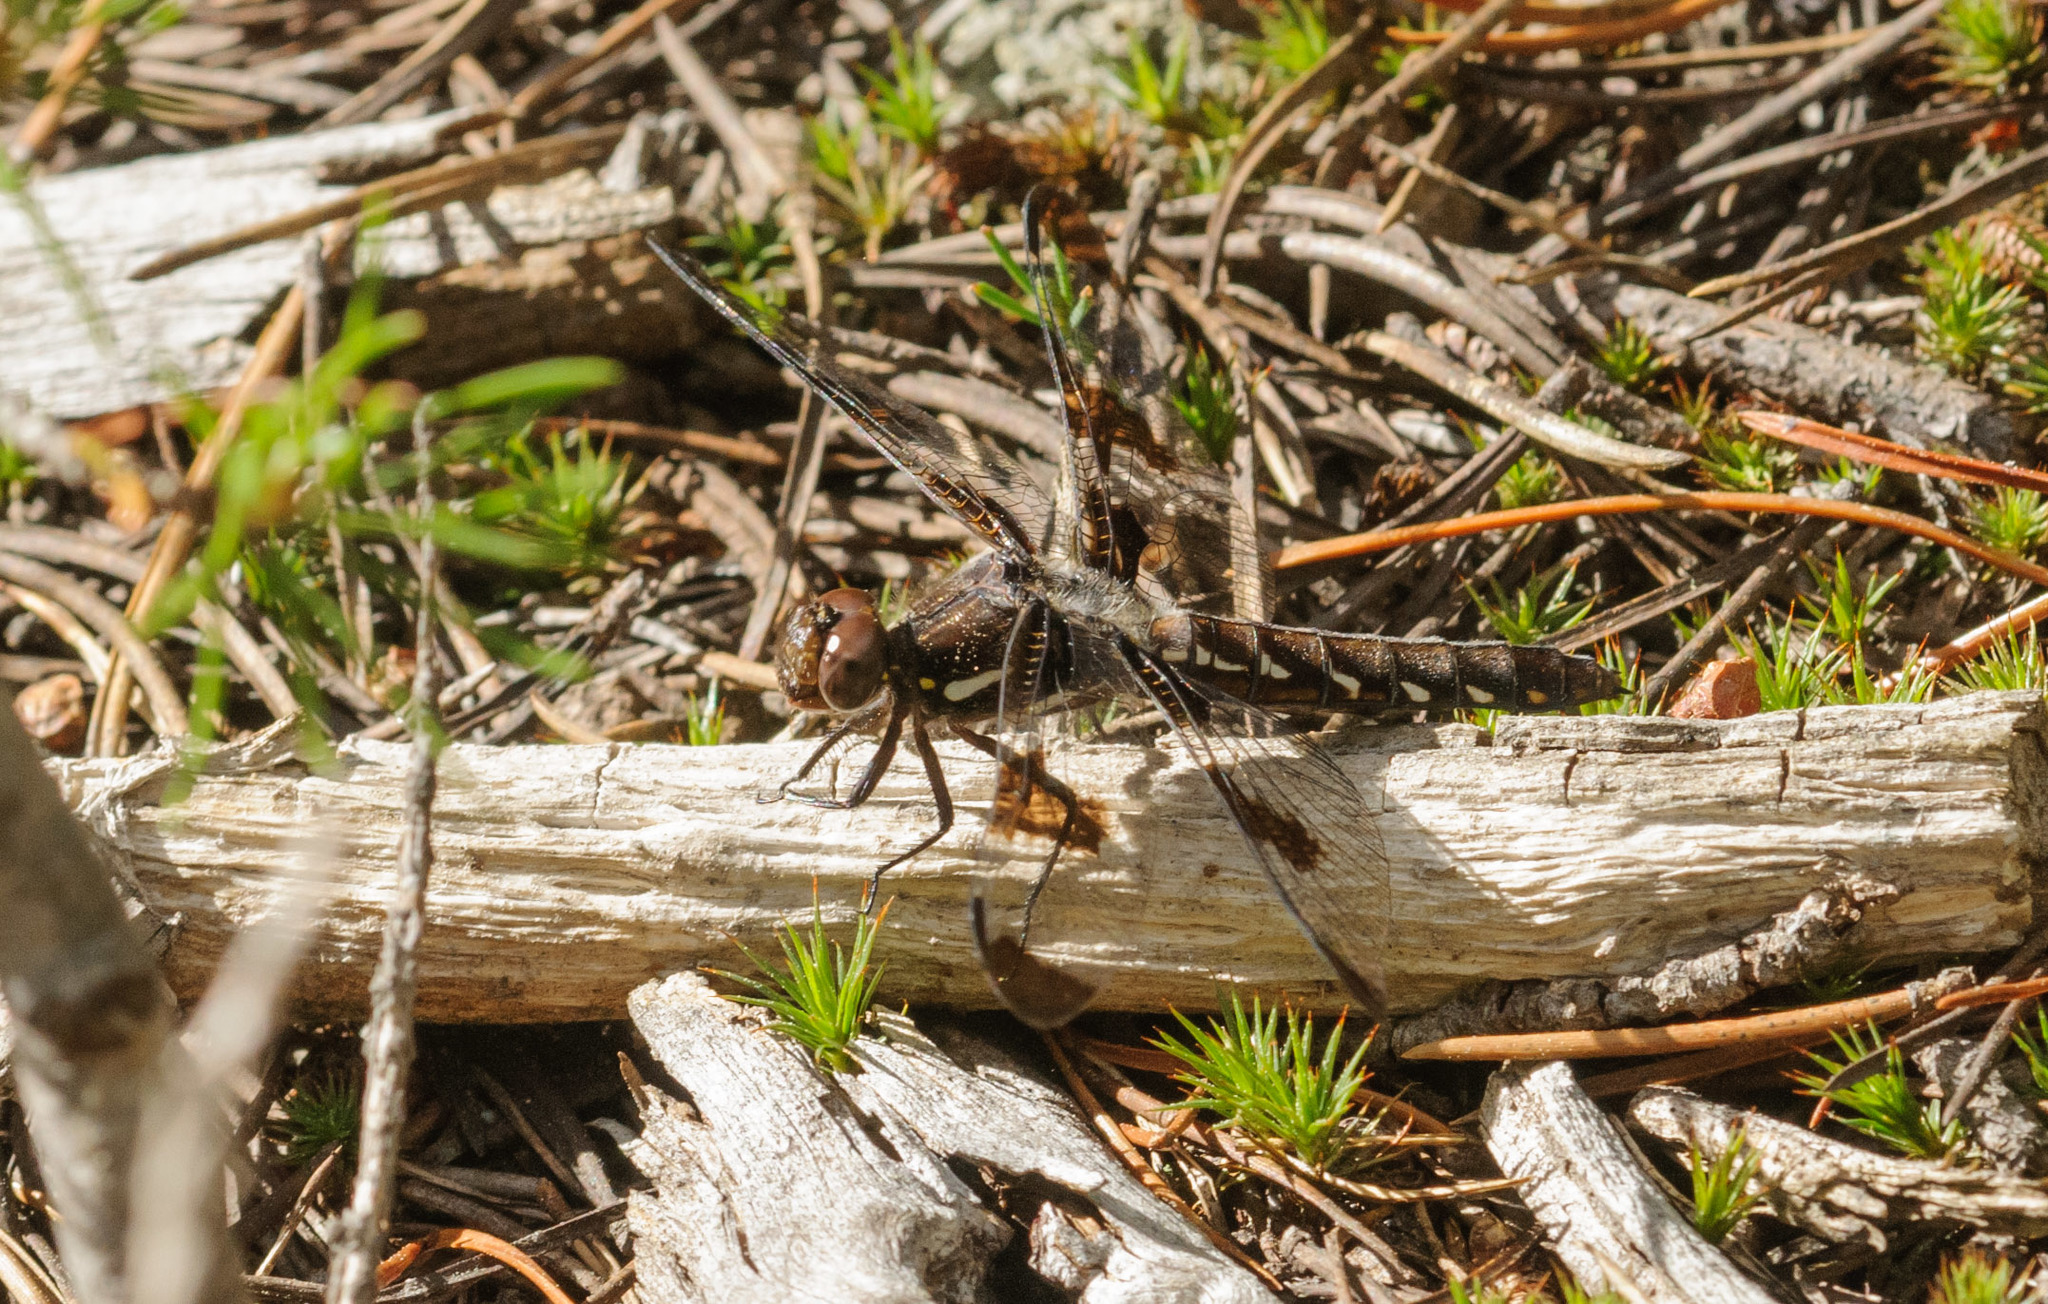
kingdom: Animalia
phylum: Arthropoda
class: Insecta
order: Odonata
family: Libellulidae
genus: Plathemis
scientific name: Plathemis lydia
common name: Common whitetail
